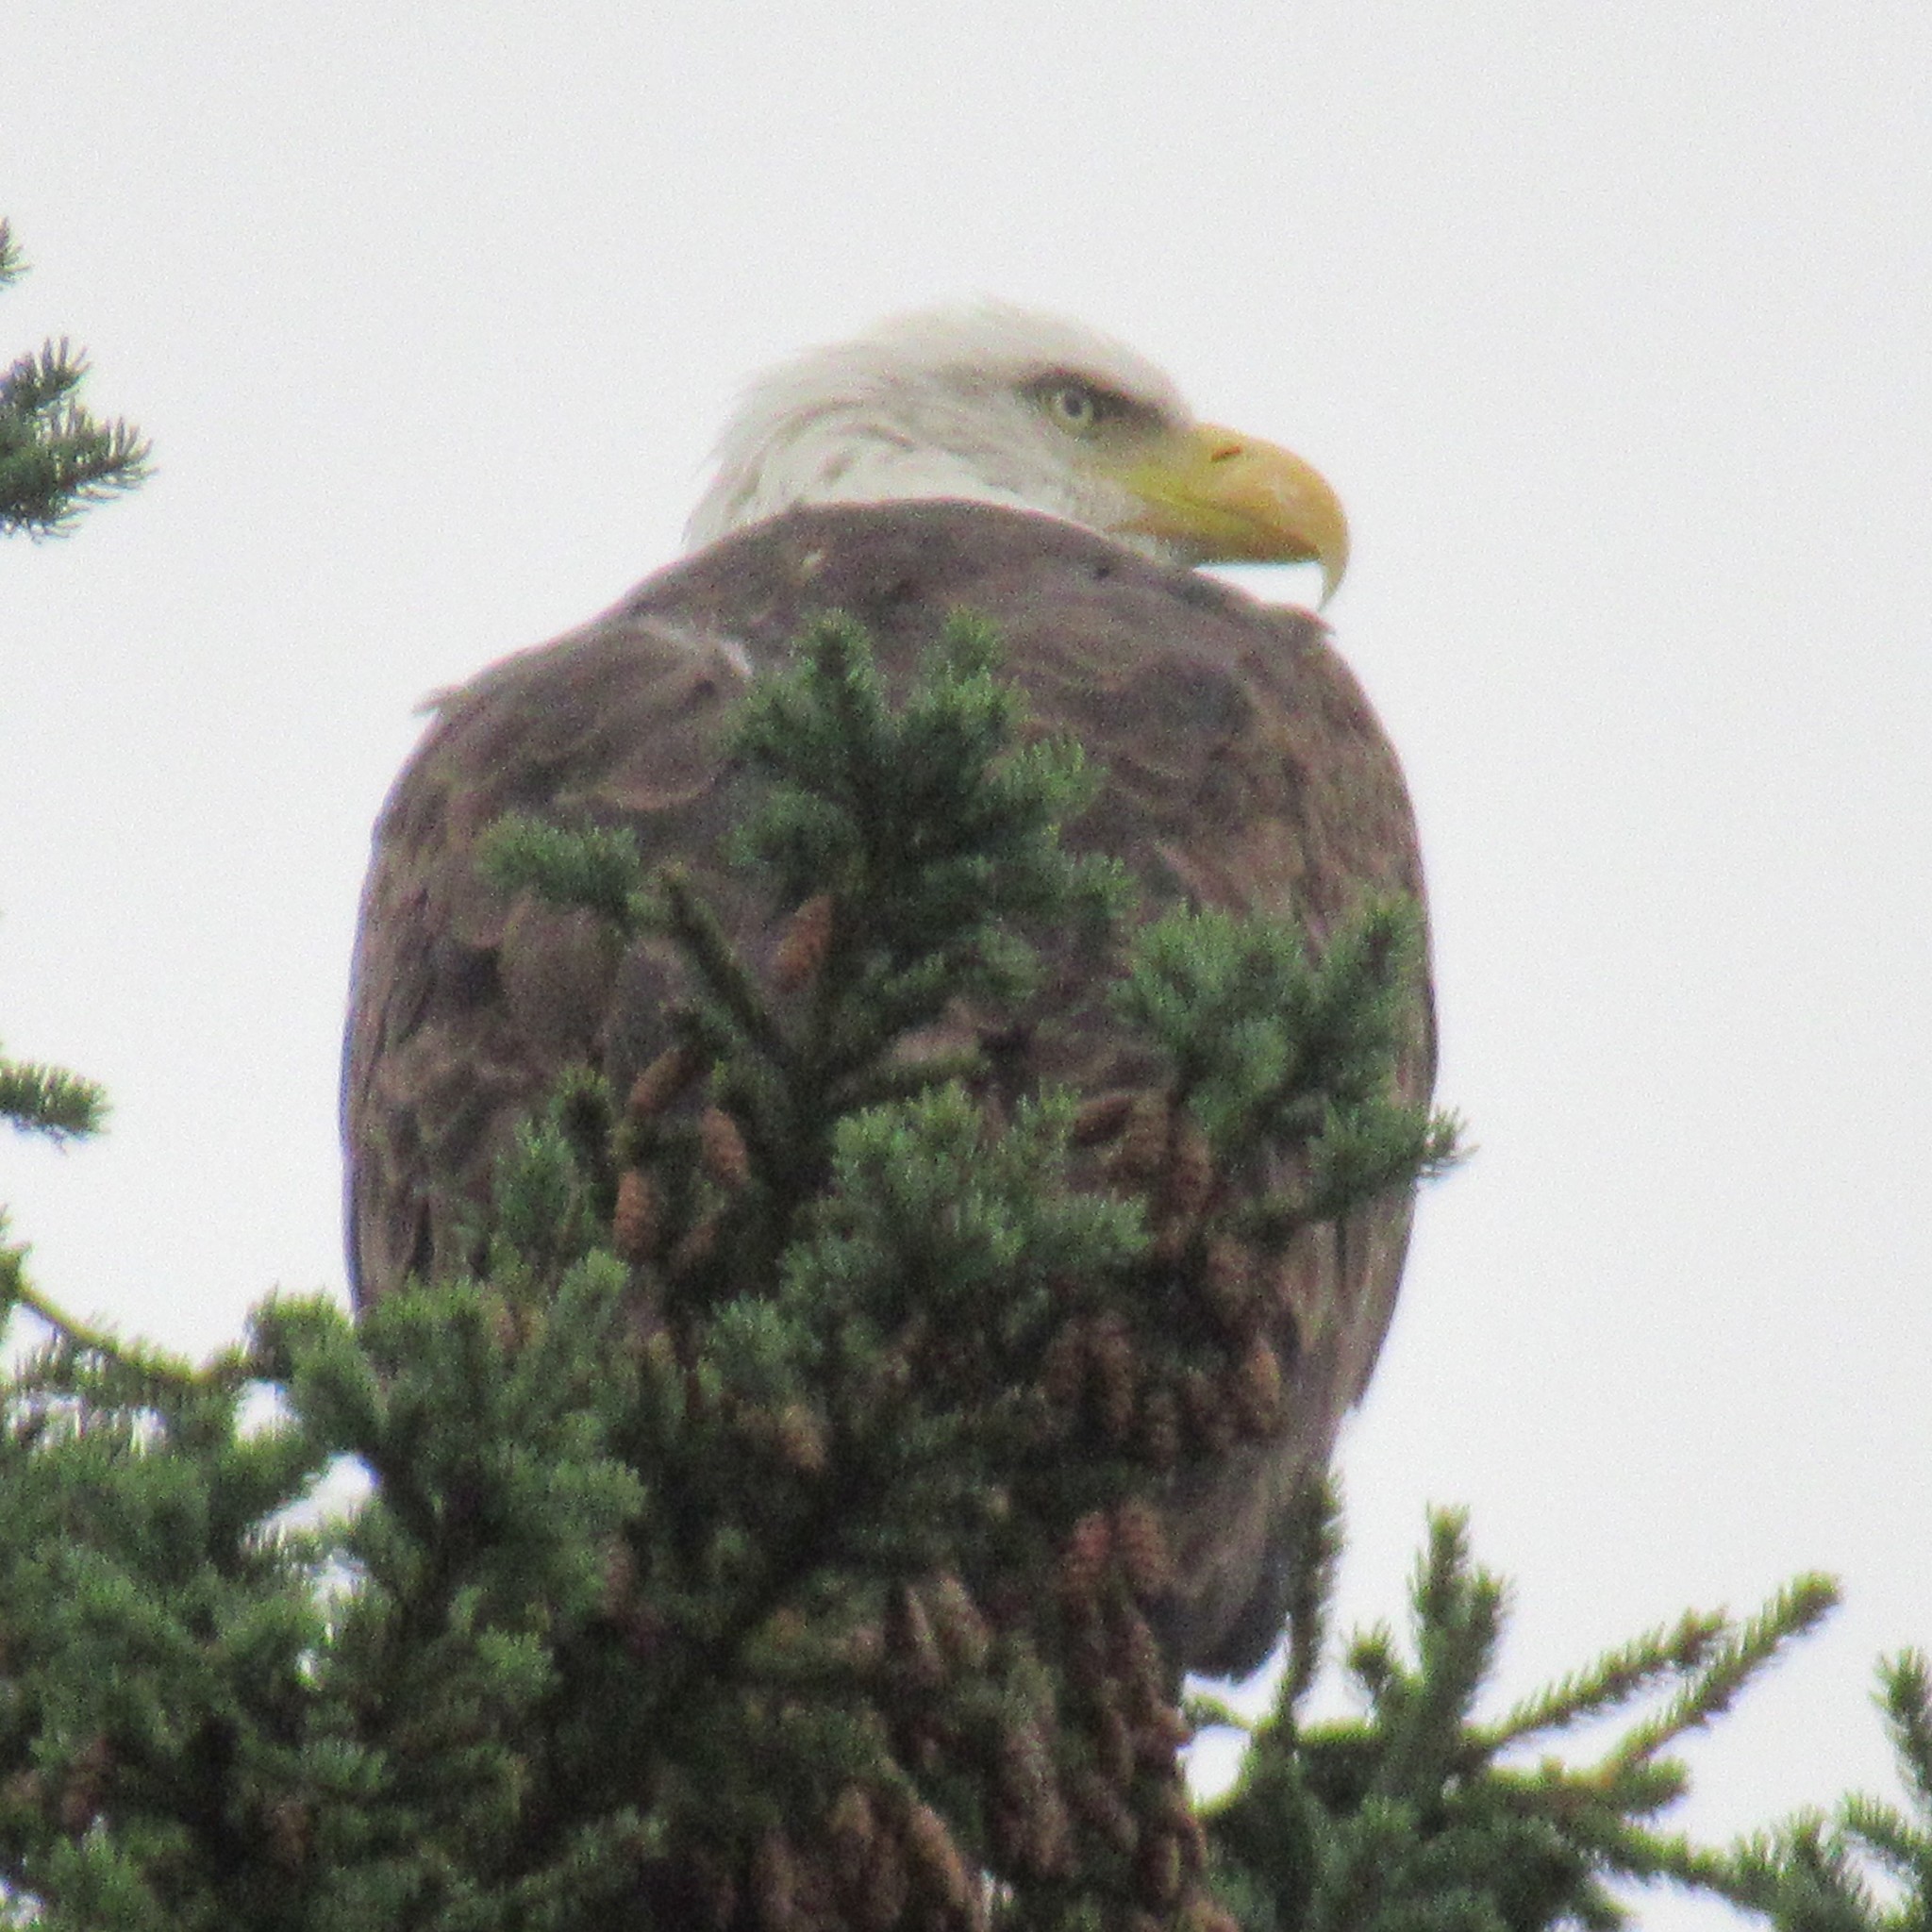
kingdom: Animalia
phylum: Chordata
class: Aves
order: Accipitriformes
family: Accipitridae
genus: Haliaeetus
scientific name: Haliaeetus leucocephalus
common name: Bald eagle
